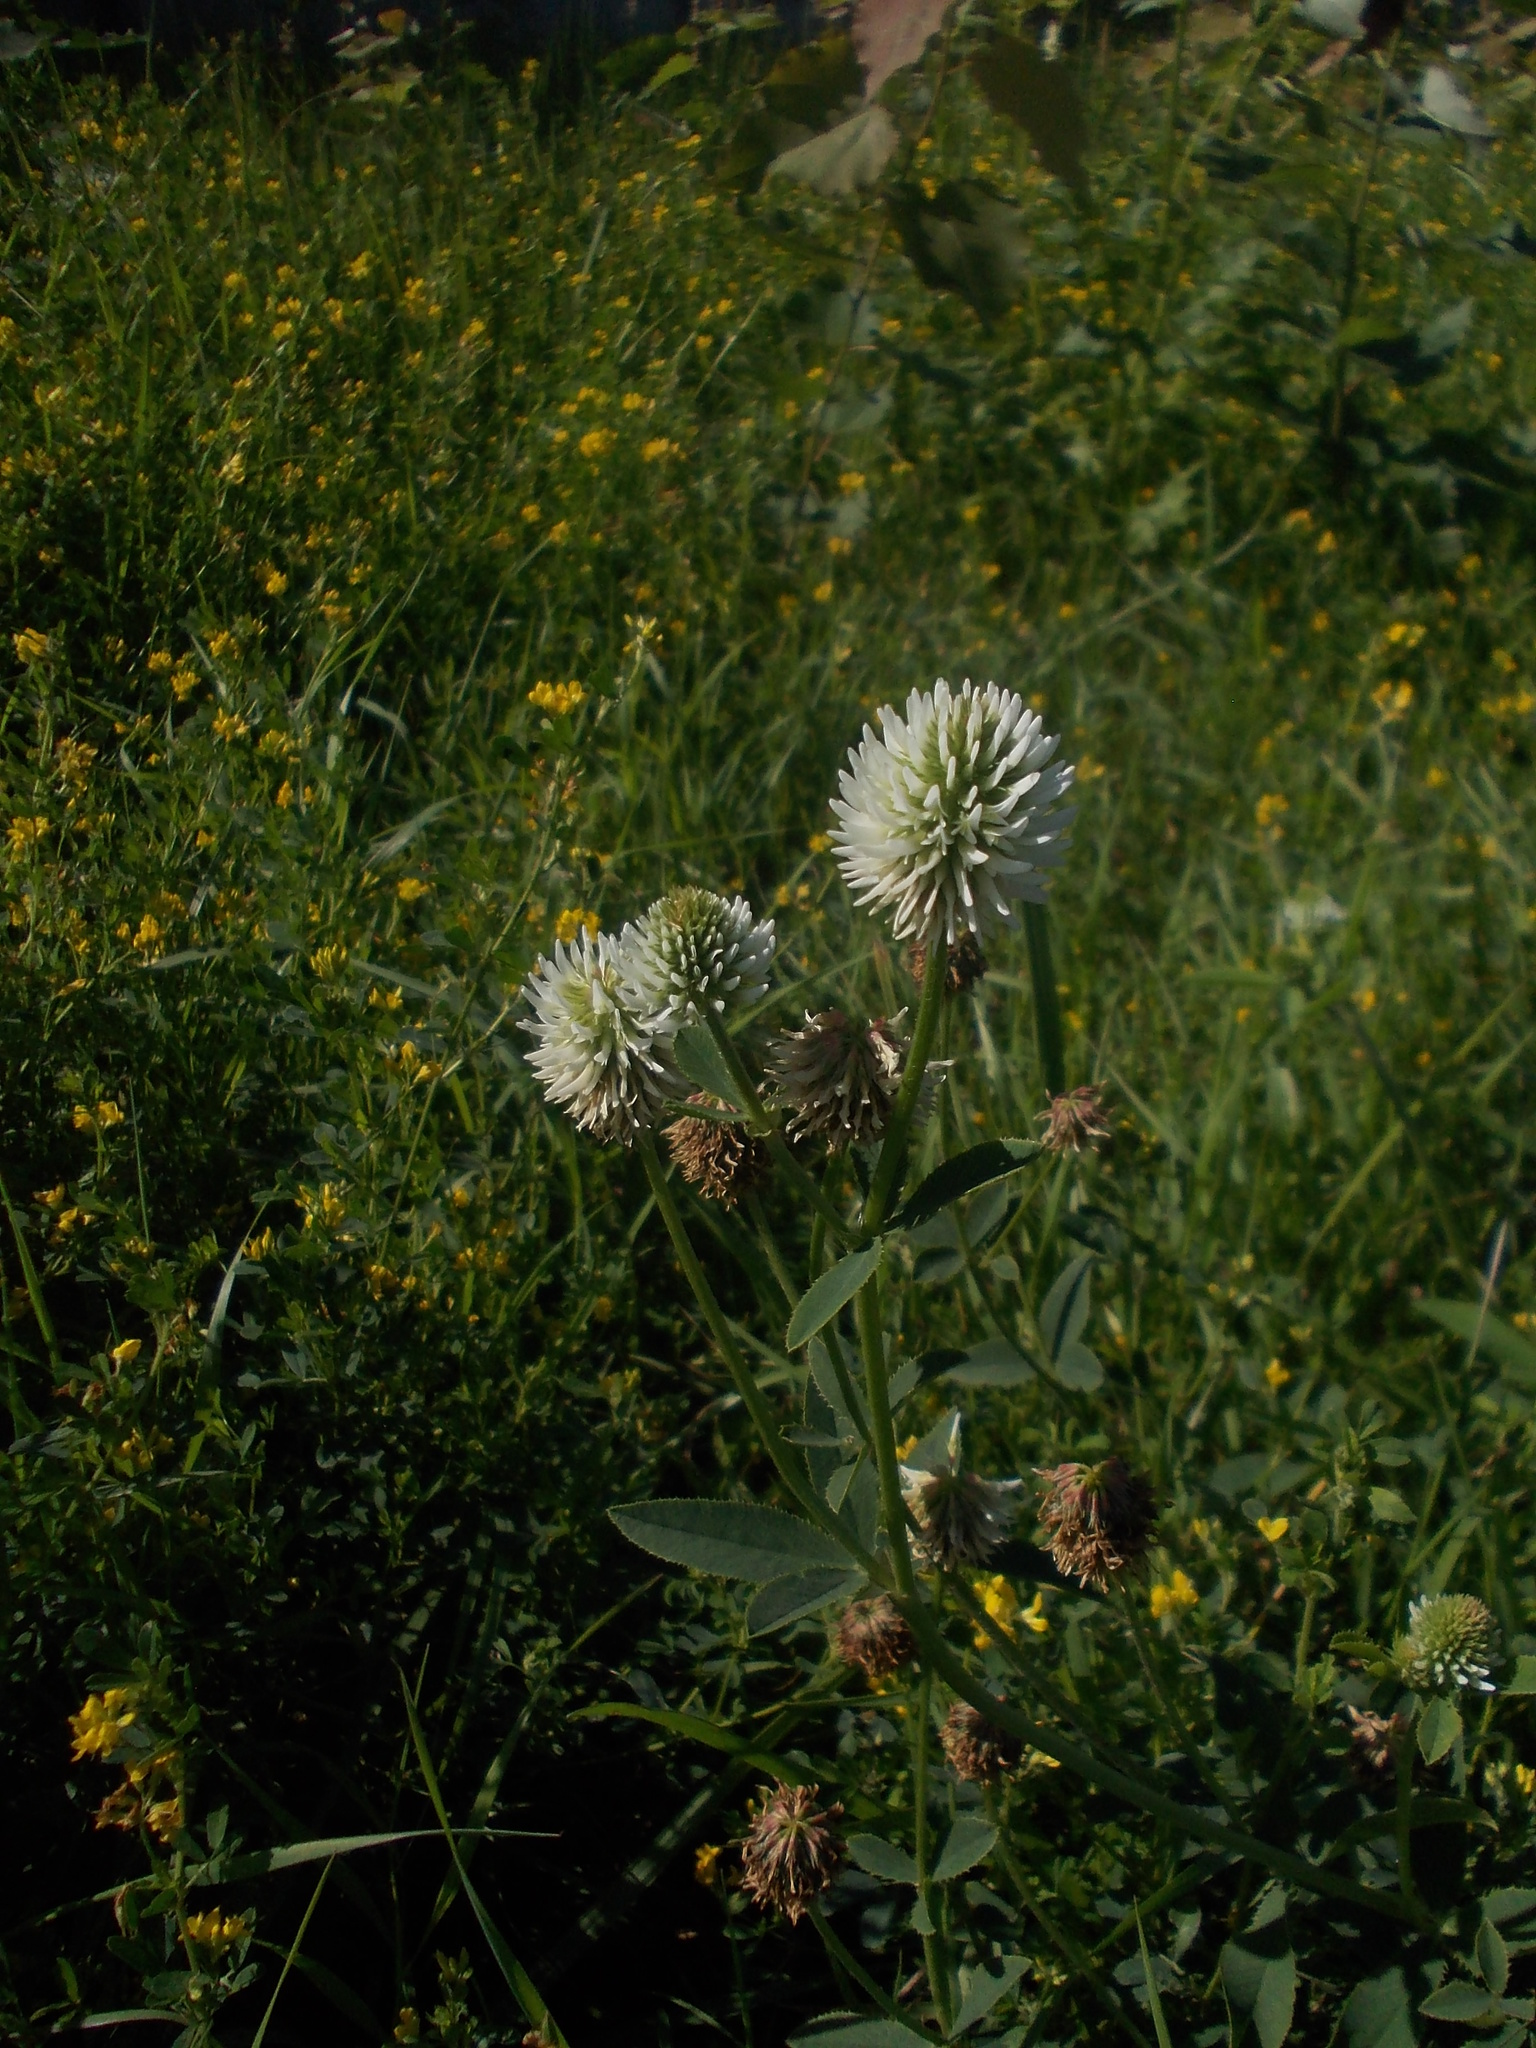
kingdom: Plantae
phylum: Tracheophyta
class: Magnoliopsida
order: Fabales
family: Fabaceae
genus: Trifolium
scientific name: Trifolium montanum
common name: Mountain clover
